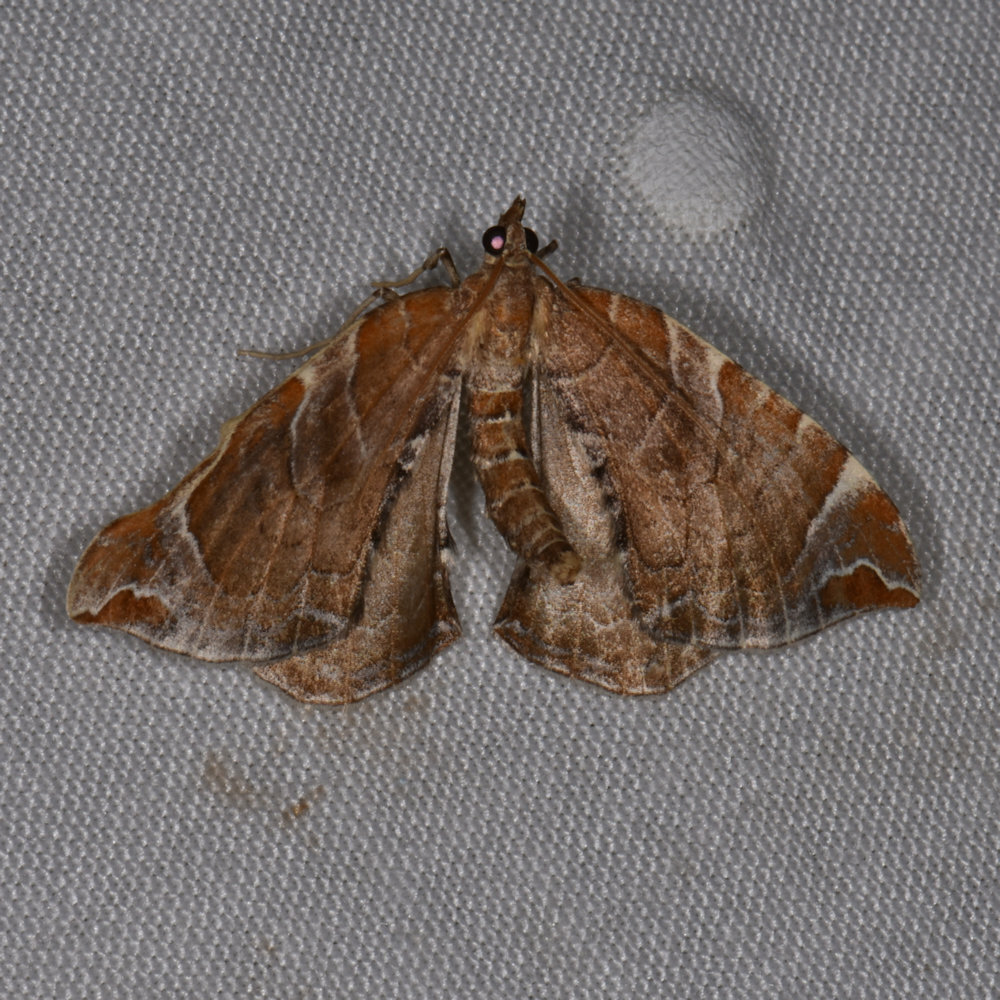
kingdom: Animalia
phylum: Arthropoda
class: Insecta
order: Lepidoptera
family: Geometridae
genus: Eulithis
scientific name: Eulithis molliculata
